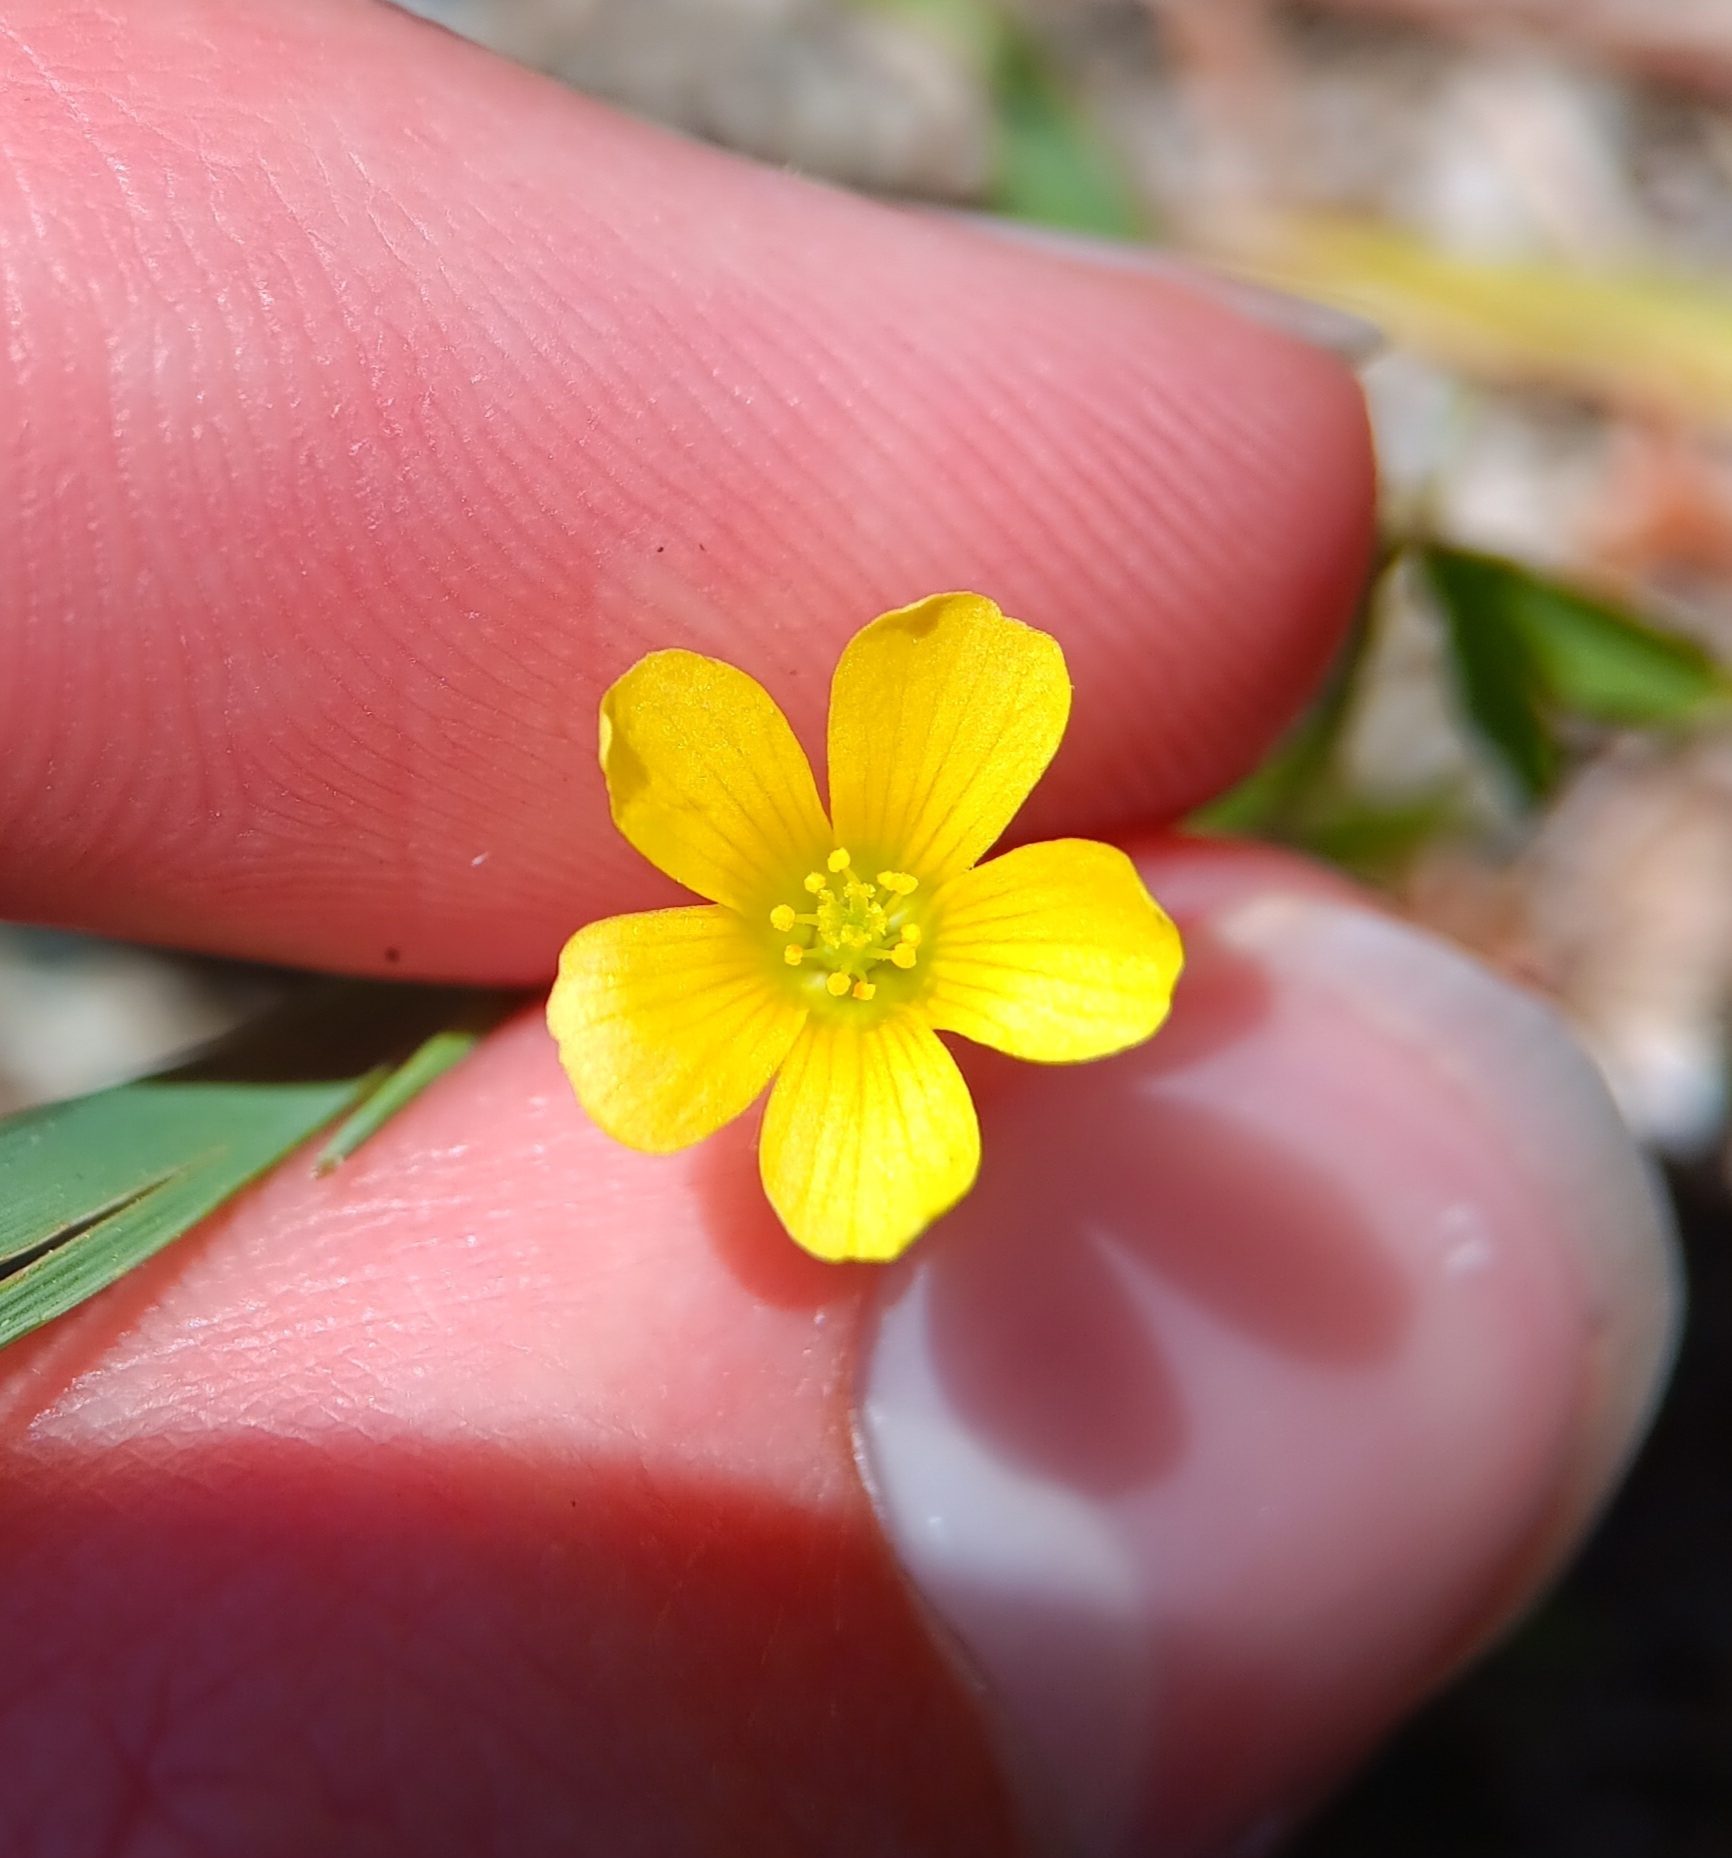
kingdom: Plantae
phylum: Tracheophyta
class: Magnoliopsida
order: Oxalidales
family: Oxalidaceae
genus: Oxalis
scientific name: Oxalis dillenii
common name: Sussex yellow-sorrel
